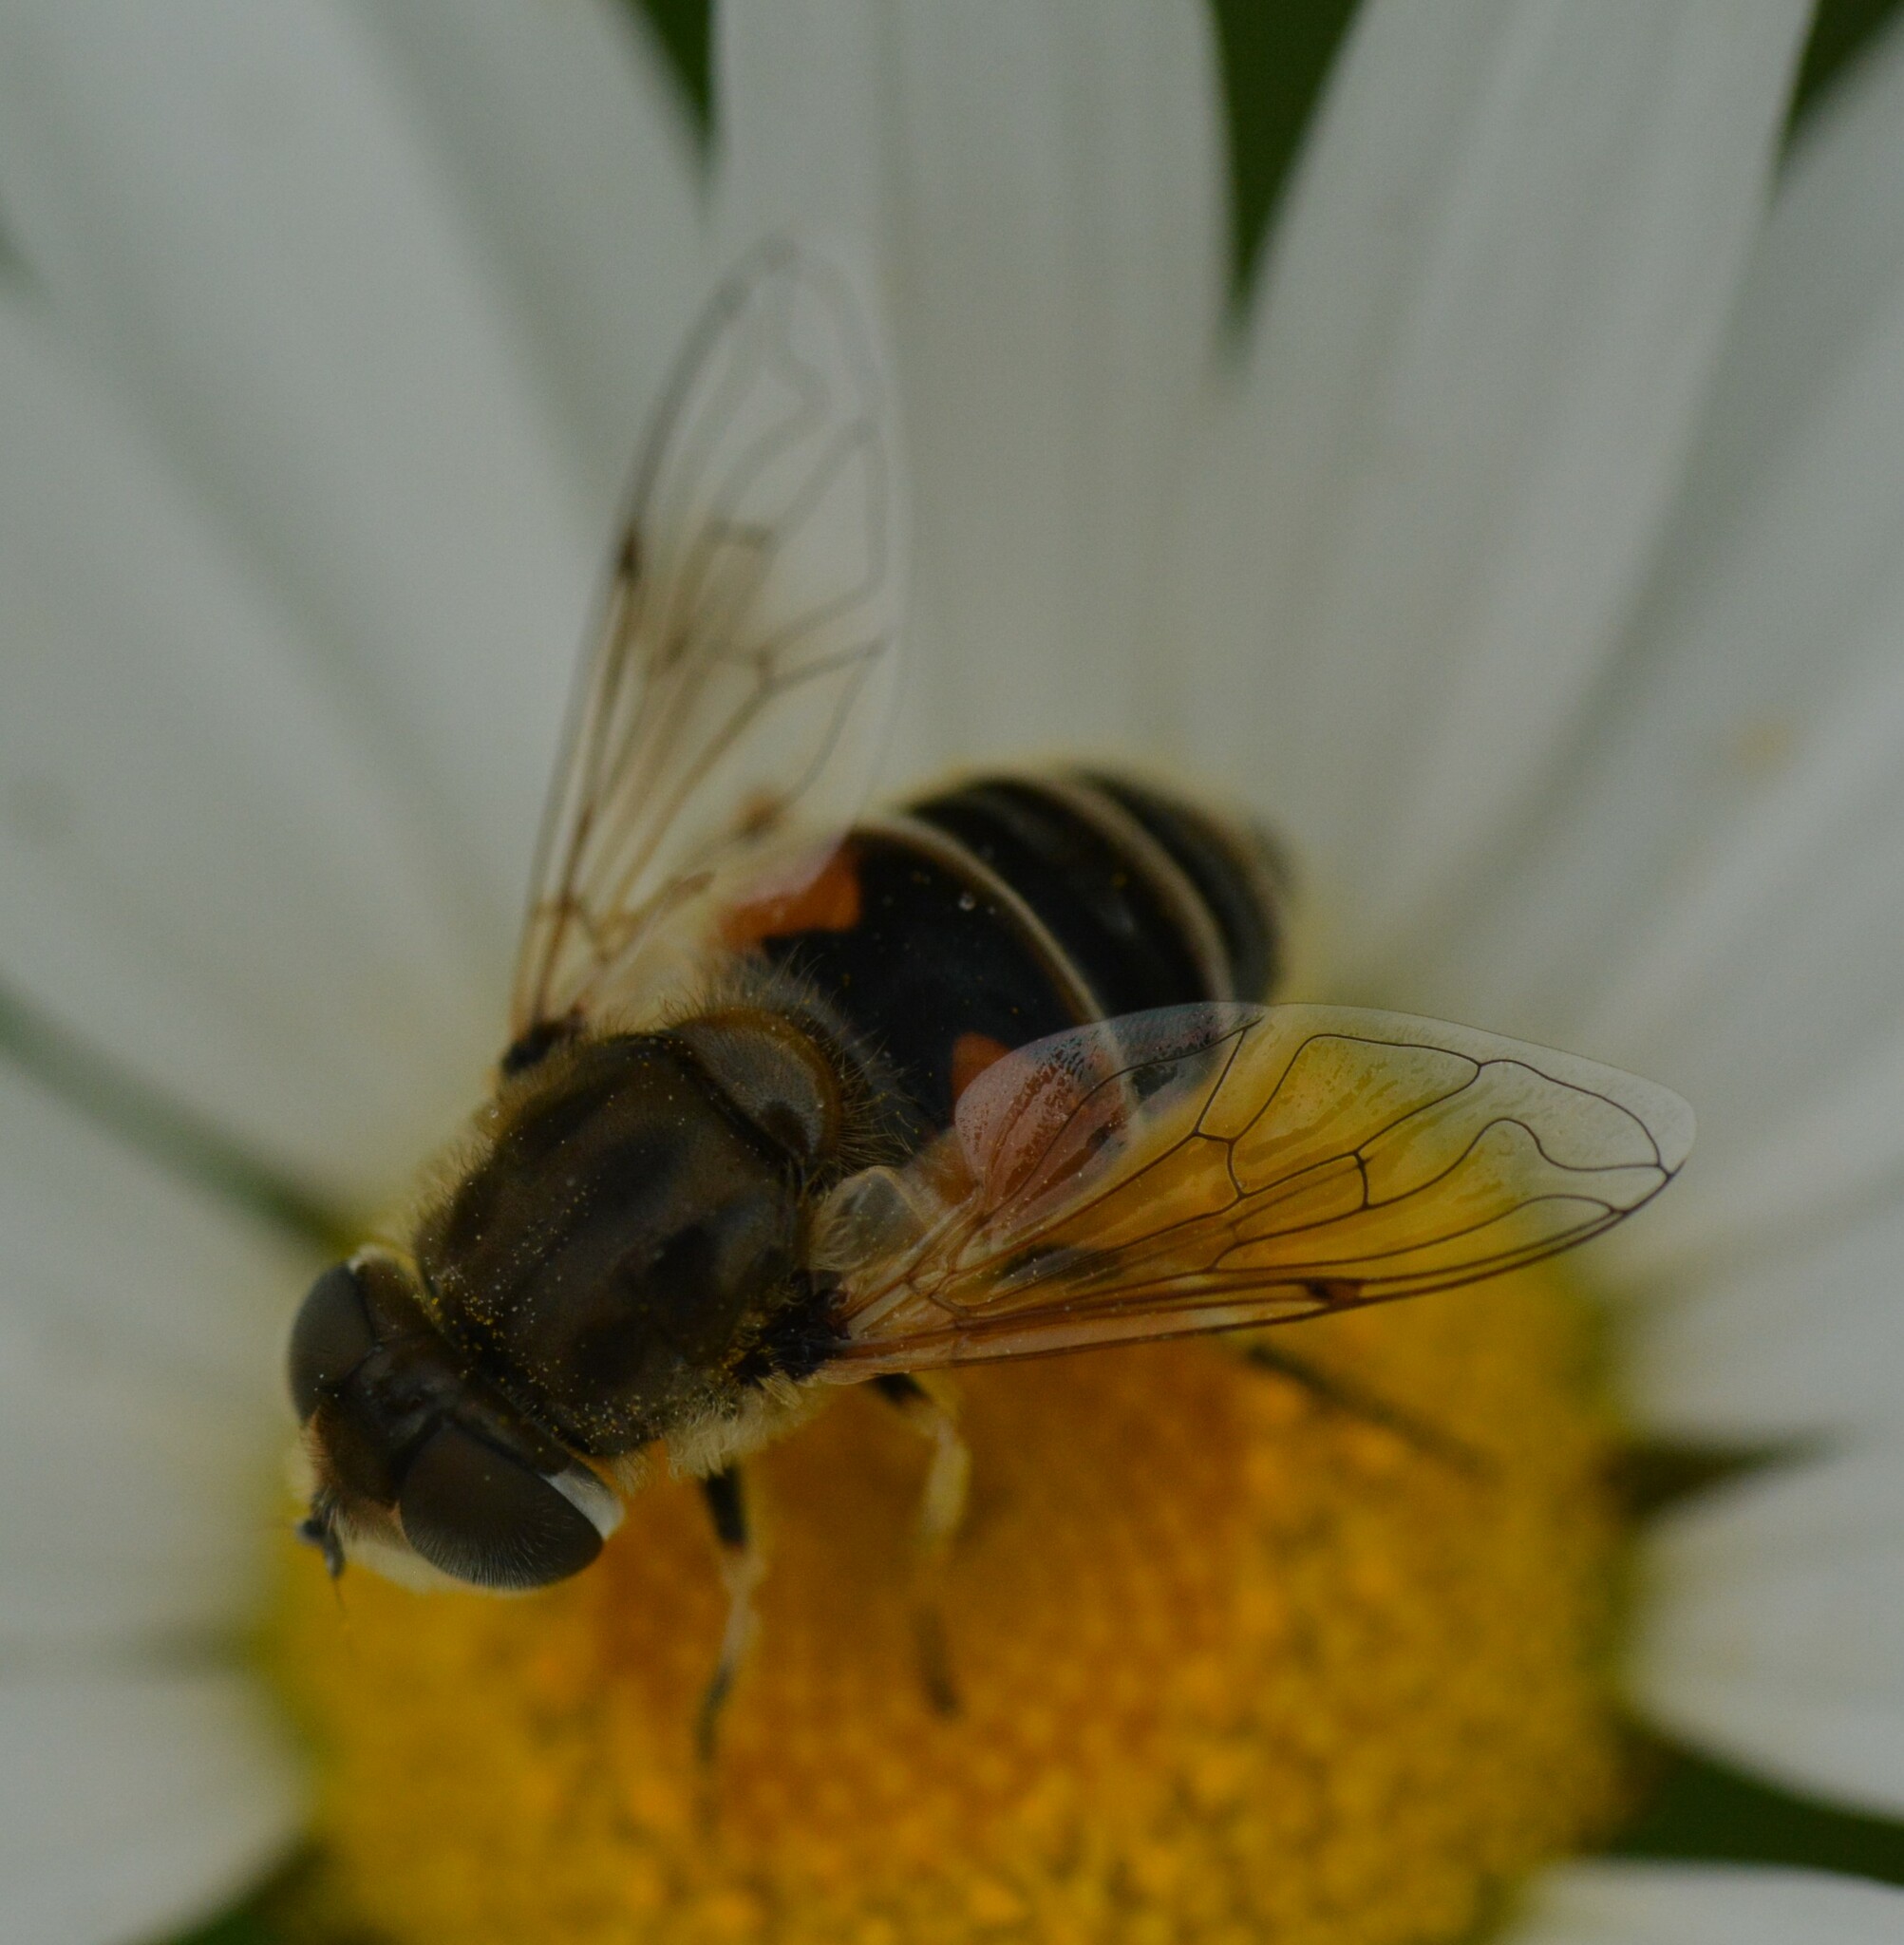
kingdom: Animalia
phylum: Arthropoda
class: Insecta
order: Diptera
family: Syrphidae
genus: Eristalis
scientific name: Eristalis arbustorum
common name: Hover fly
